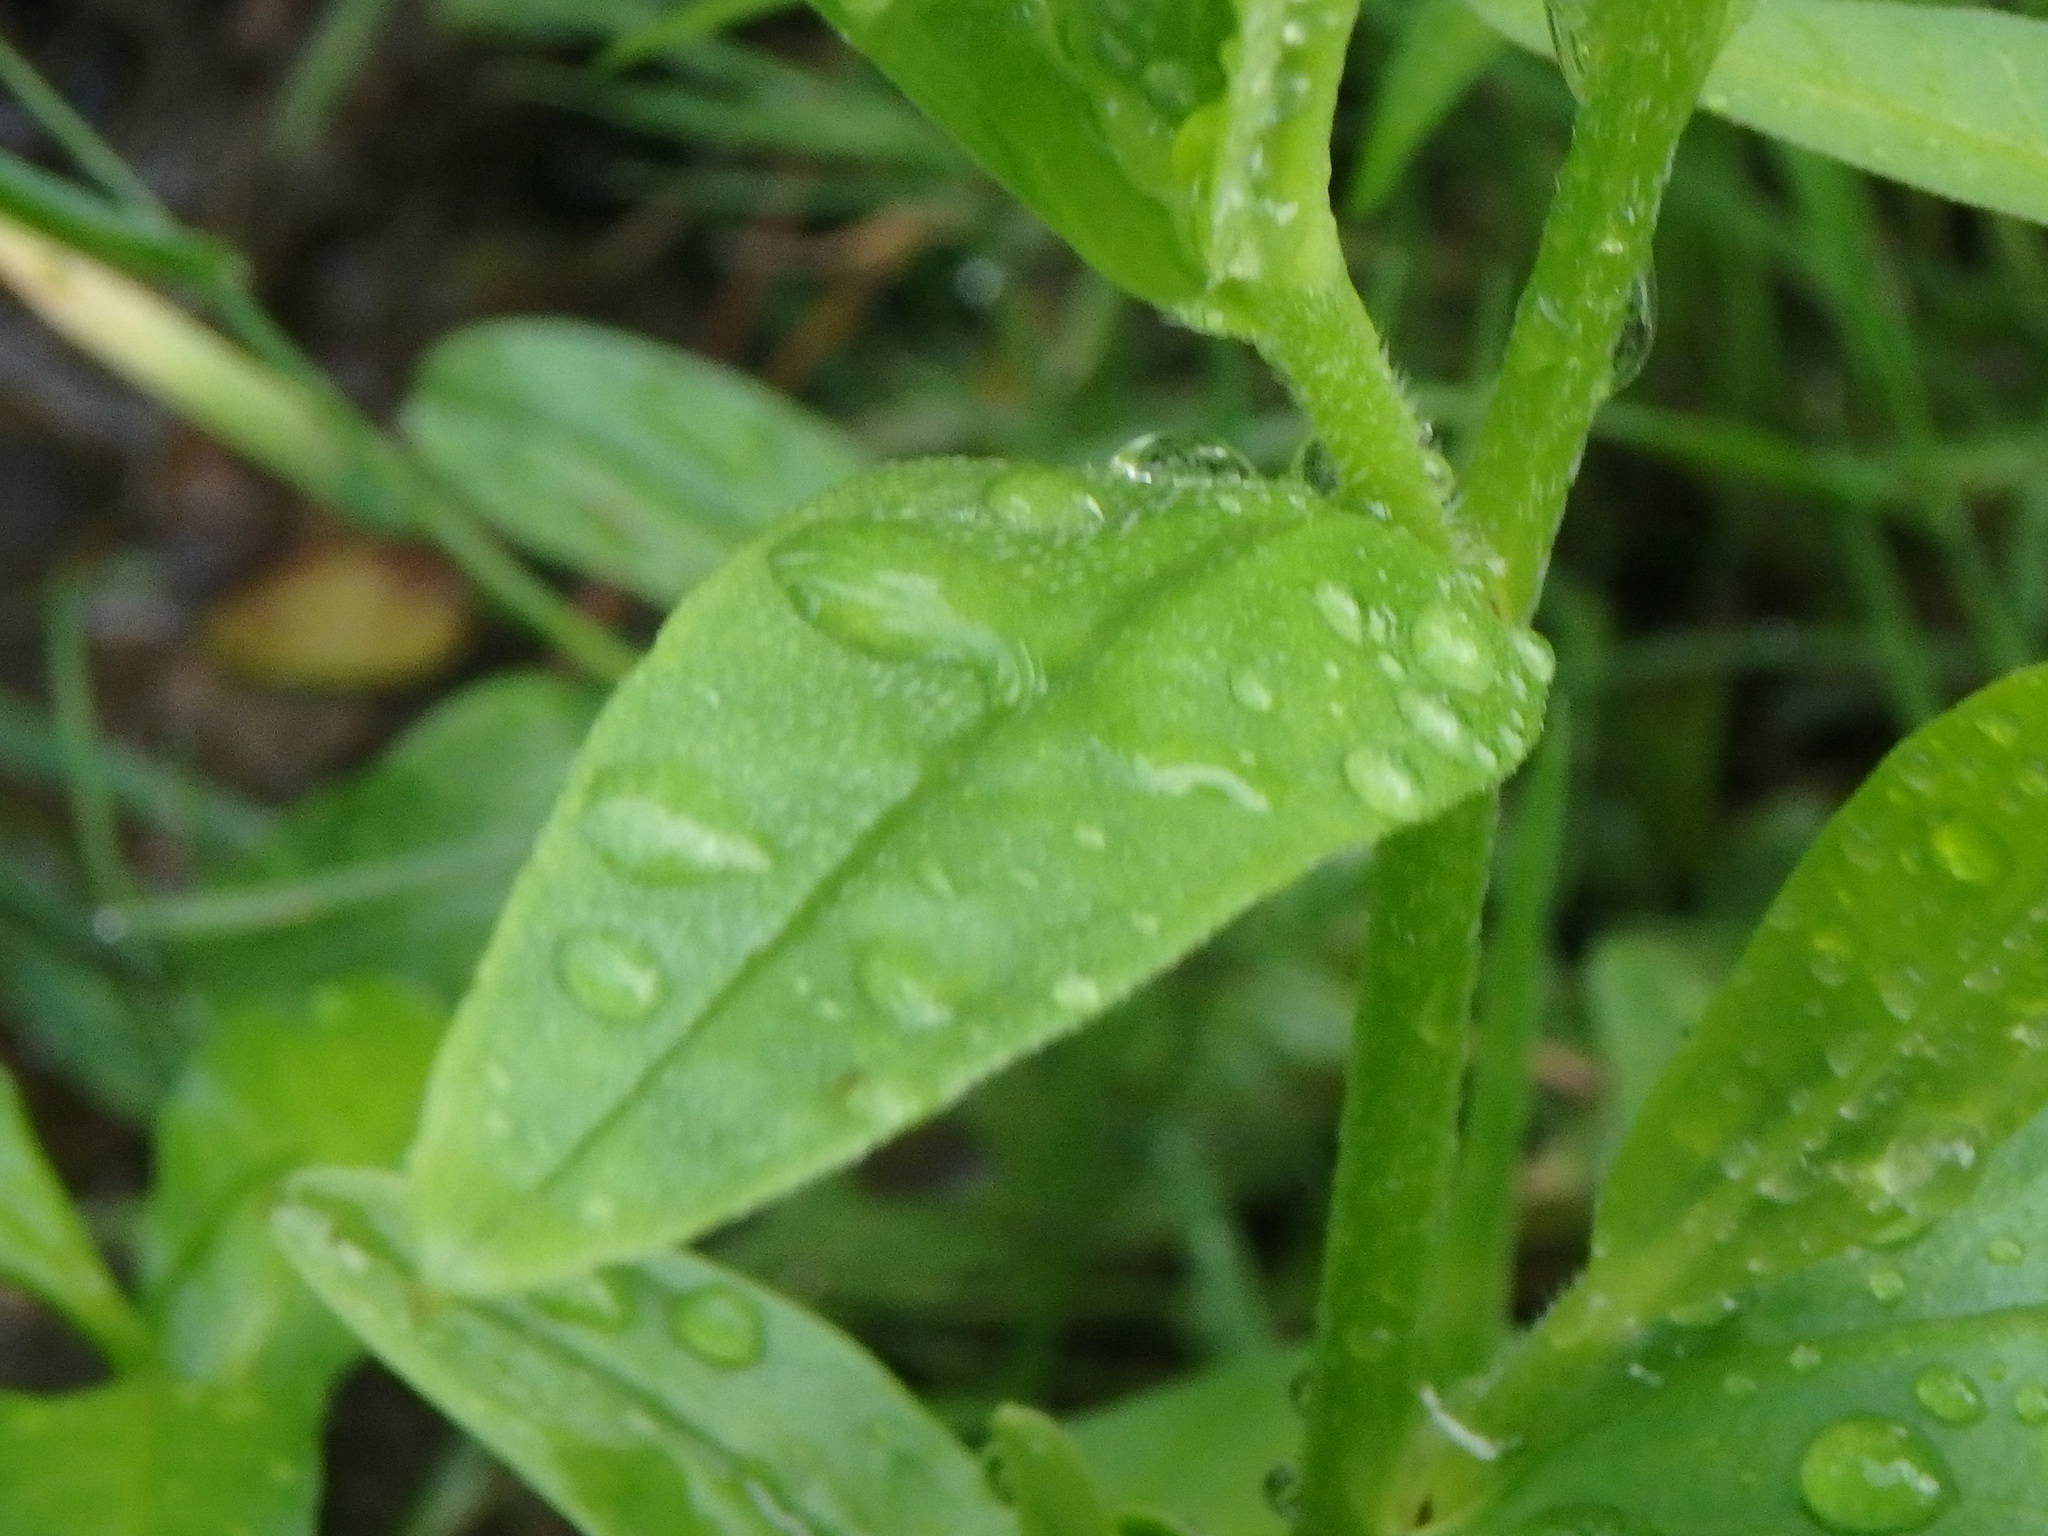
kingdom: Plantae
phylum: Tracheophyta
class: Magnoliopsida
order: Boraginales
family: Boraginaceae
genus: Myosotis
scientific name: Myosotis scorpioides
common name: Water forget-me-not
